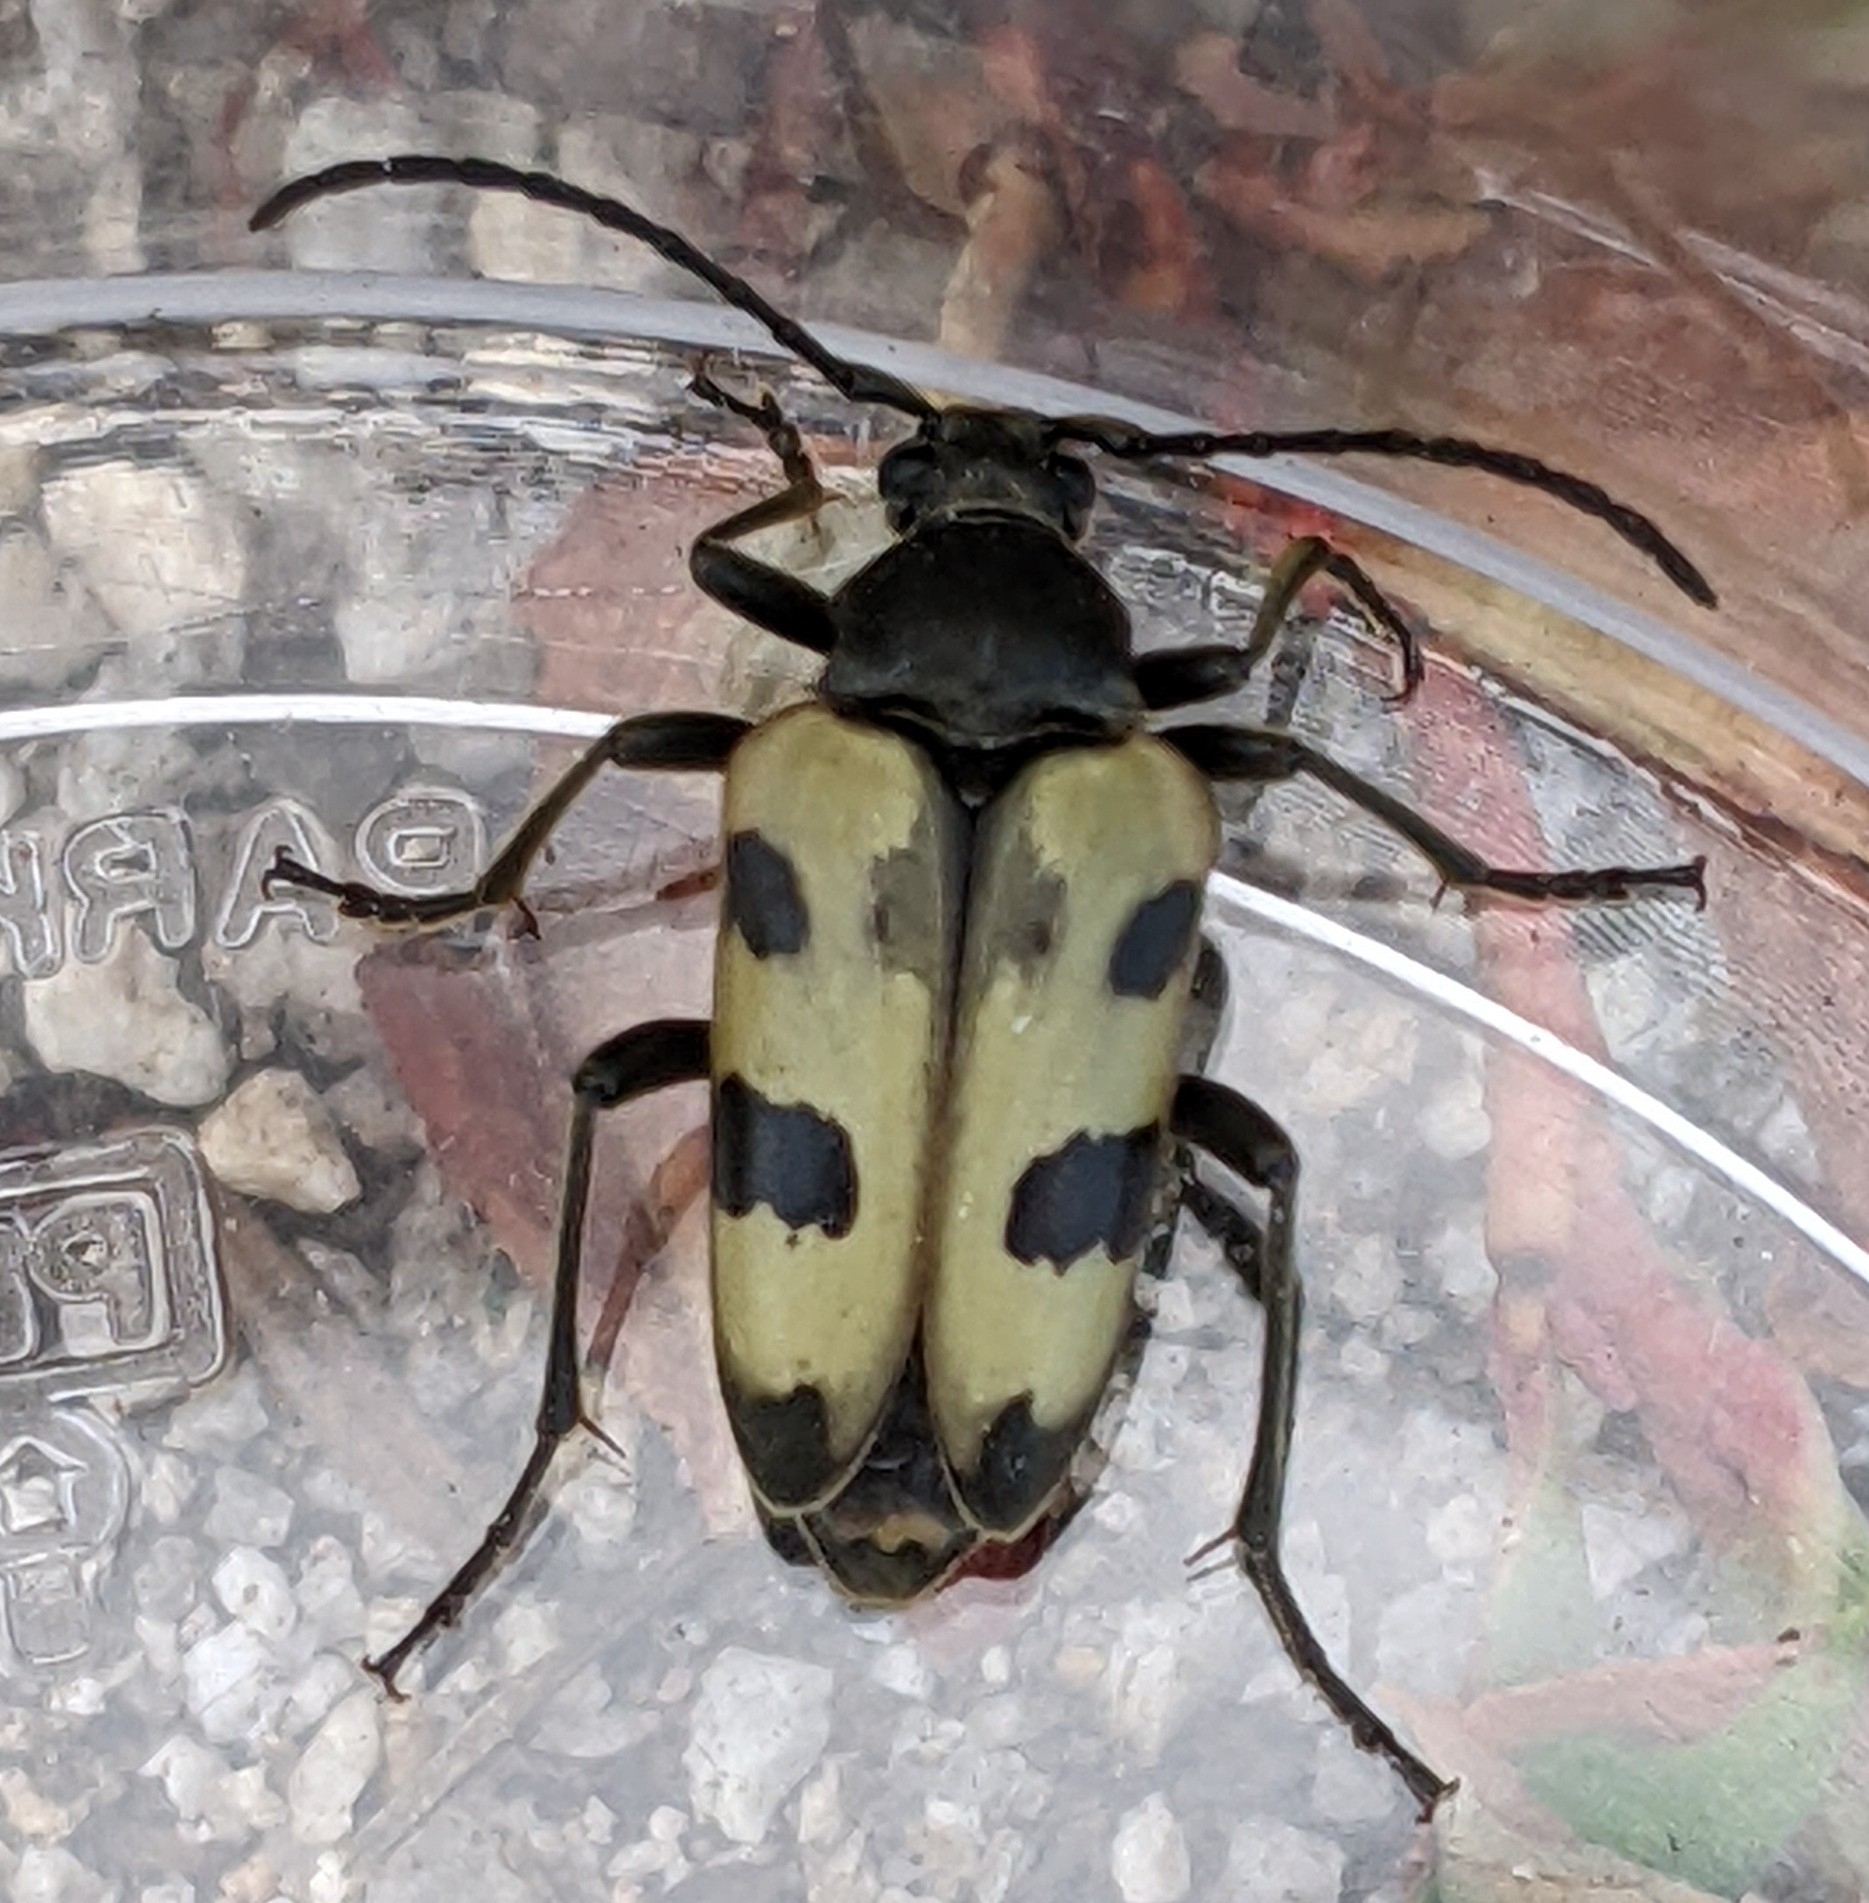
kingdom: Animalia
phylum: Arthropoda
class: Insecta
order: Coleoptera
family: Cerambycidae
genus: Judolia
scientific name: Judolia instabilis
